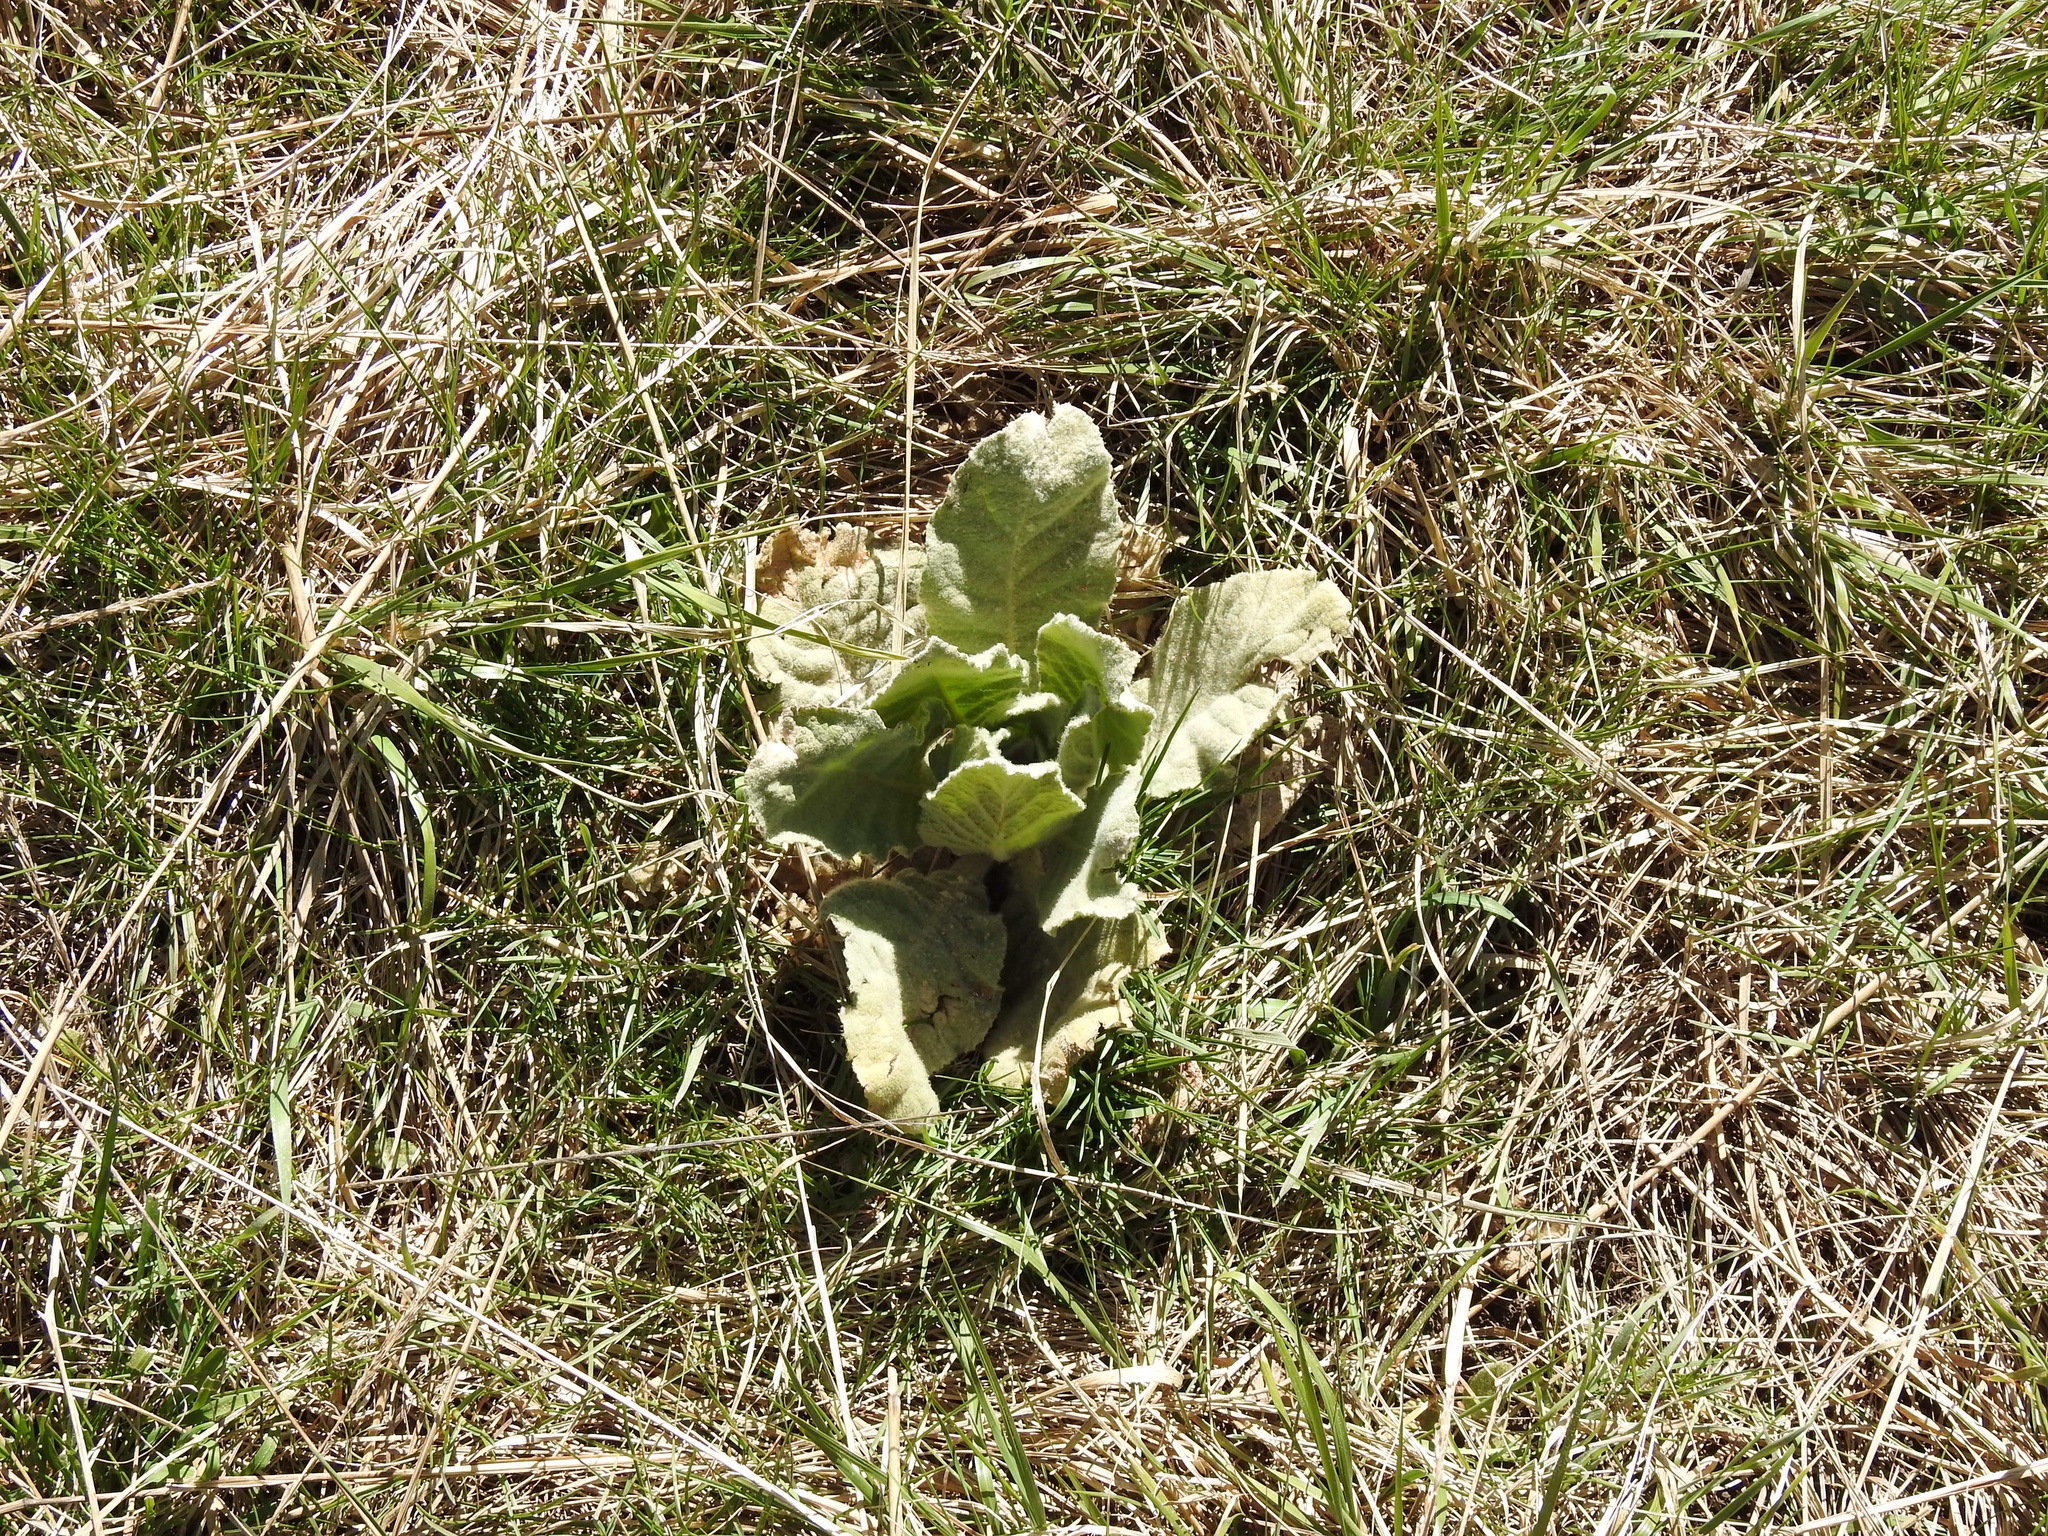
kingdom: Plantae
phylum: Tracheophyta
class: Magnoliopsida
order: Lamiales
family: Scrophulariaceae
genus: Verbascum
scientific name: Verbascum thapsus
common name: Common mullein
